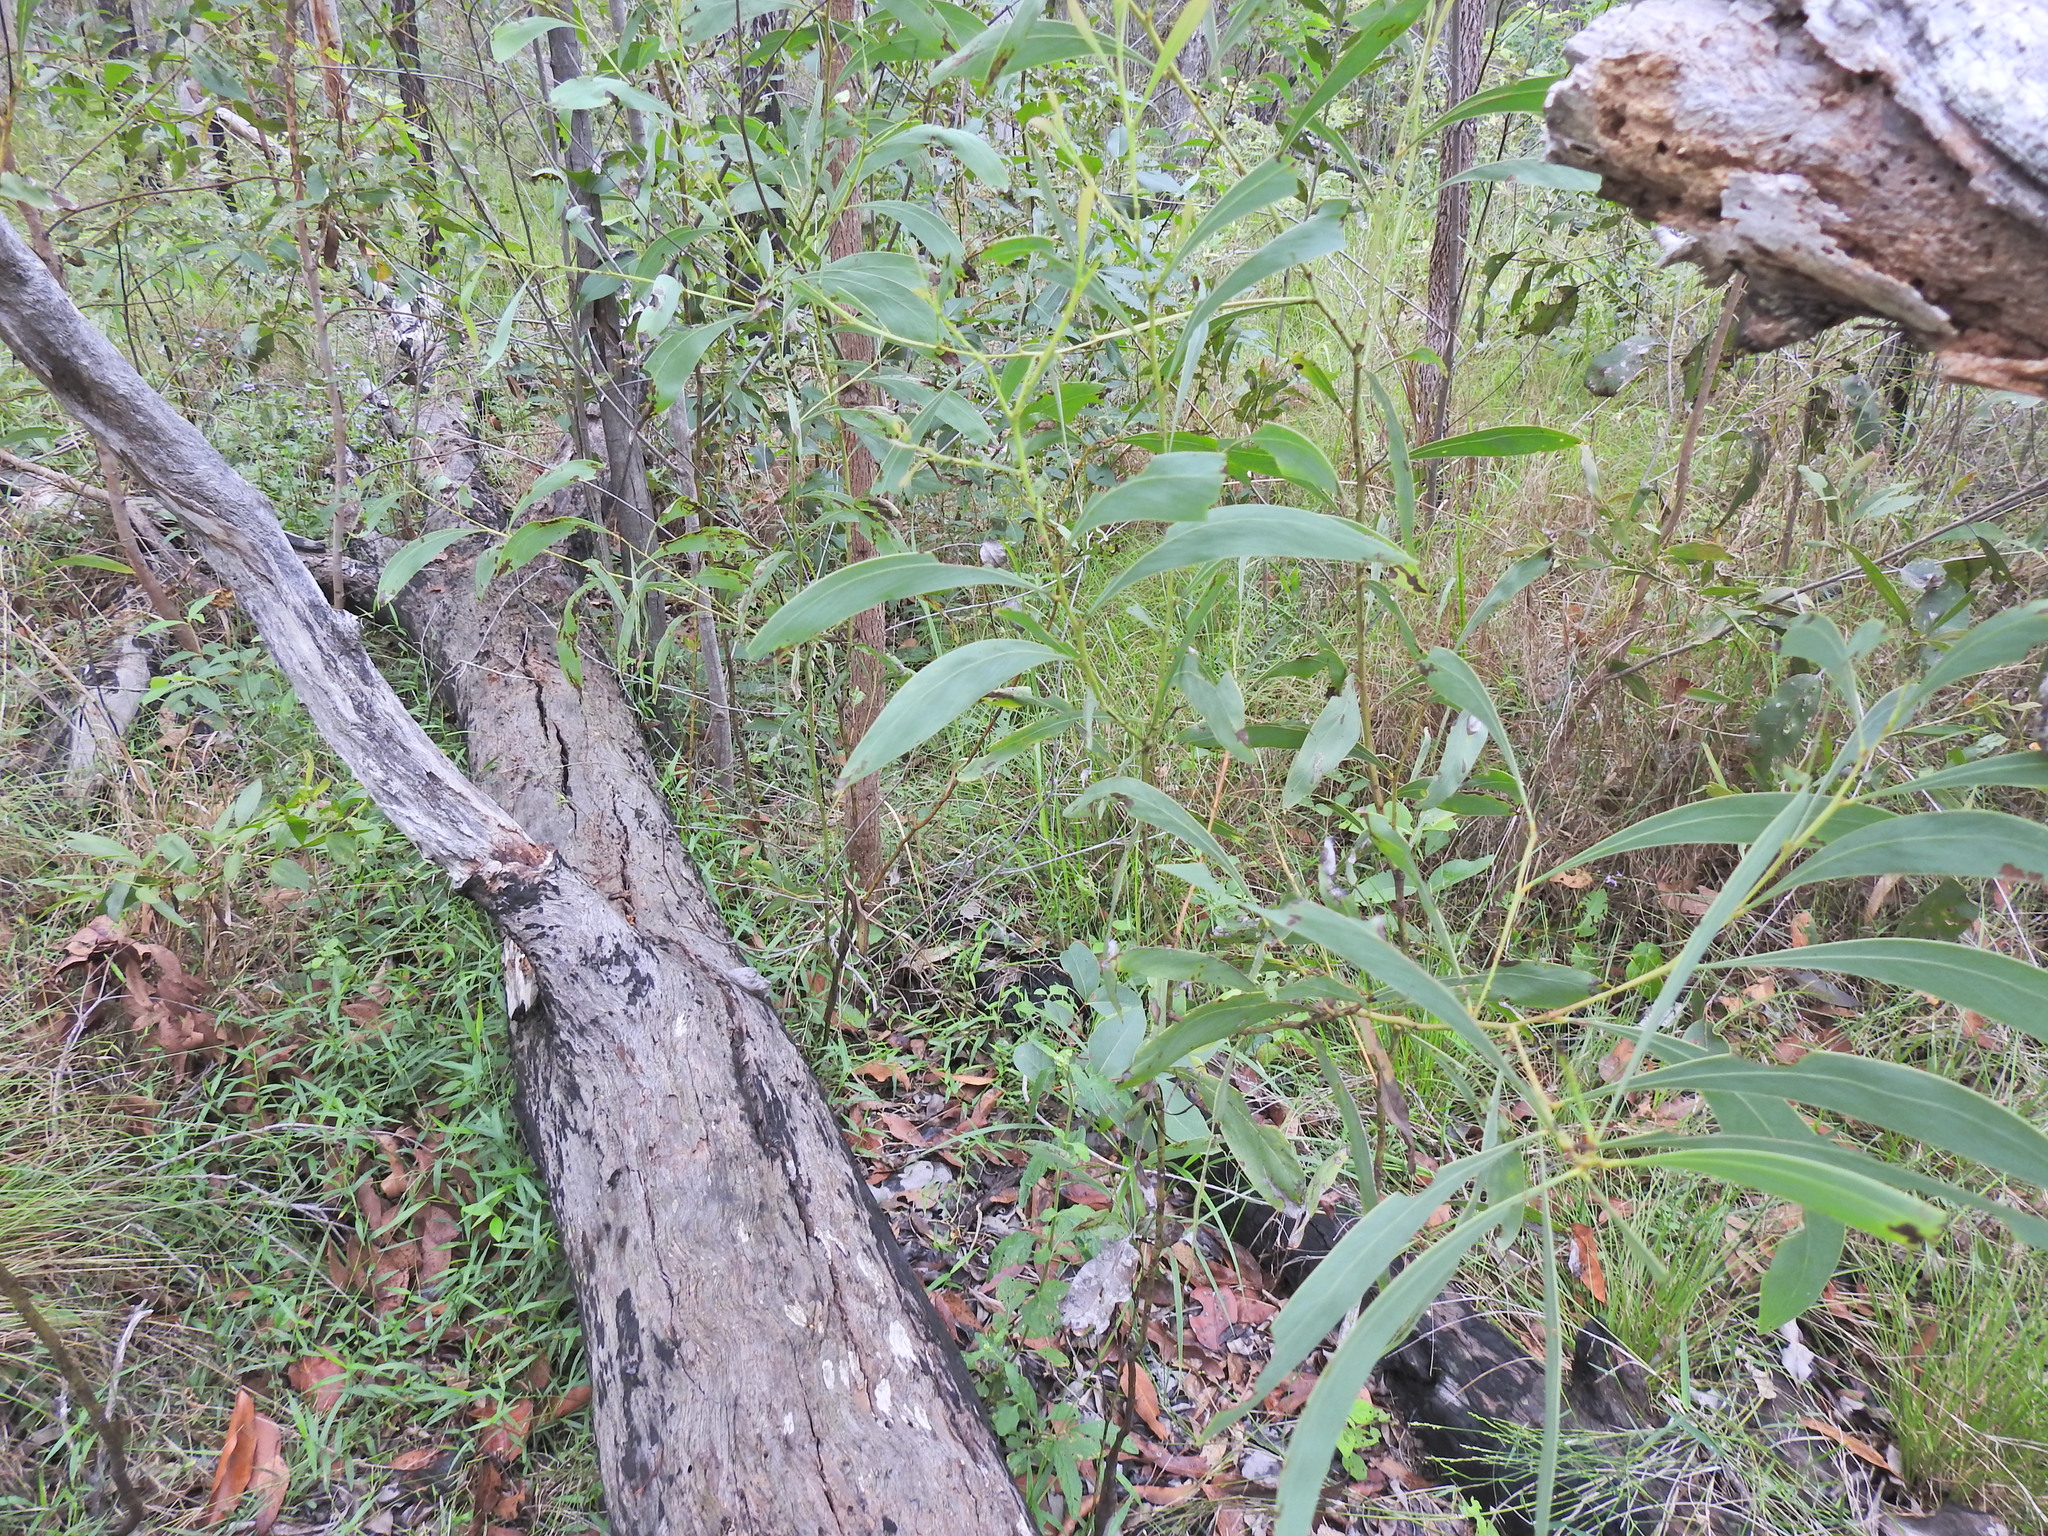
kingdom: Plantae
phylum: Tracheophyta
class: Magnoliopsida
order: Fabales
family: Fabaceae
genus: Acacia
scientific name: Acacia falcata
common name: Burra acacia
